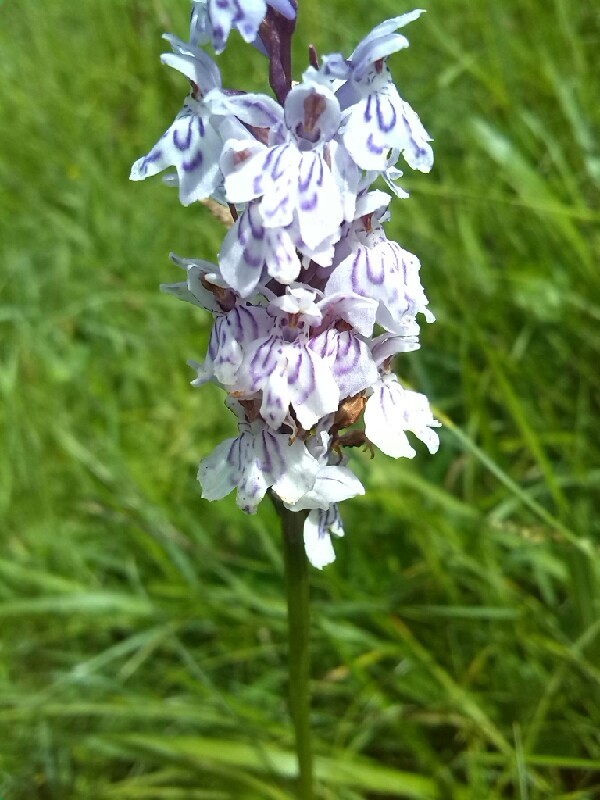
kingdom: Plantae
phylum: Tracheophyta
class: Liliopsida
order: Asparagales
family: Orchidaceae
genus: Dactylorhiza
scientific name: Dactylorhiza maculata
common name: Heath spotted-orchid
